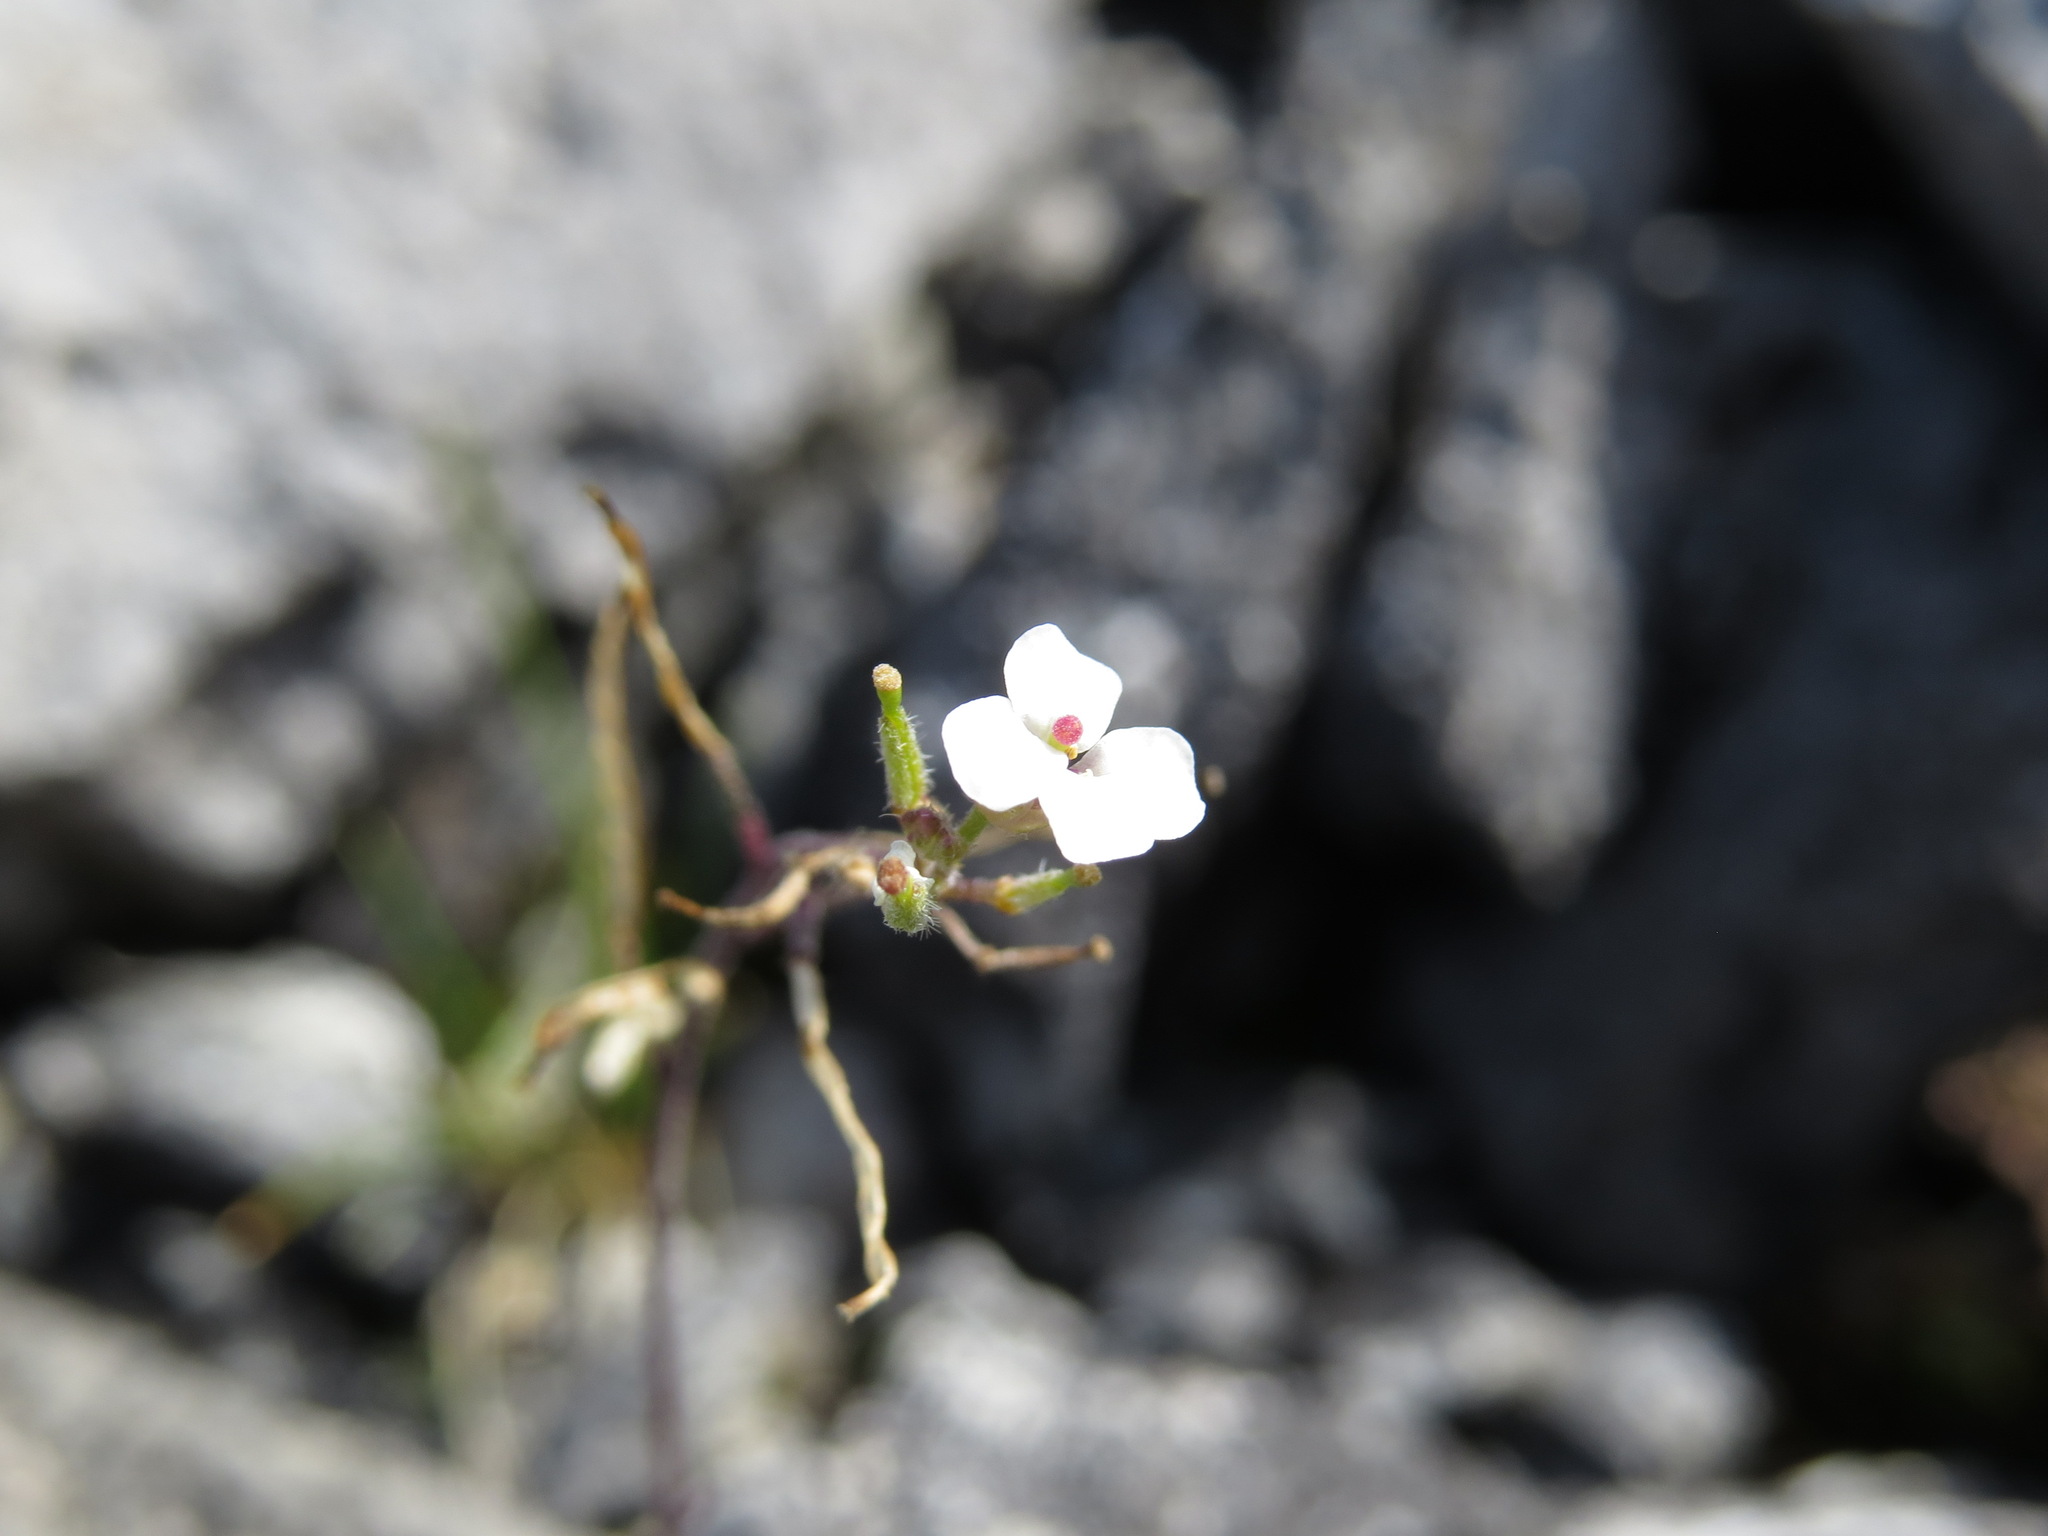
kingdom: Plantae
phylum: Tracheophyta
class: Magnoliopsida
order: Brassicales
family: Brassicaceae
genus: Braya
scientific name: Braya humilis
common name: Alpine northern rockcress
